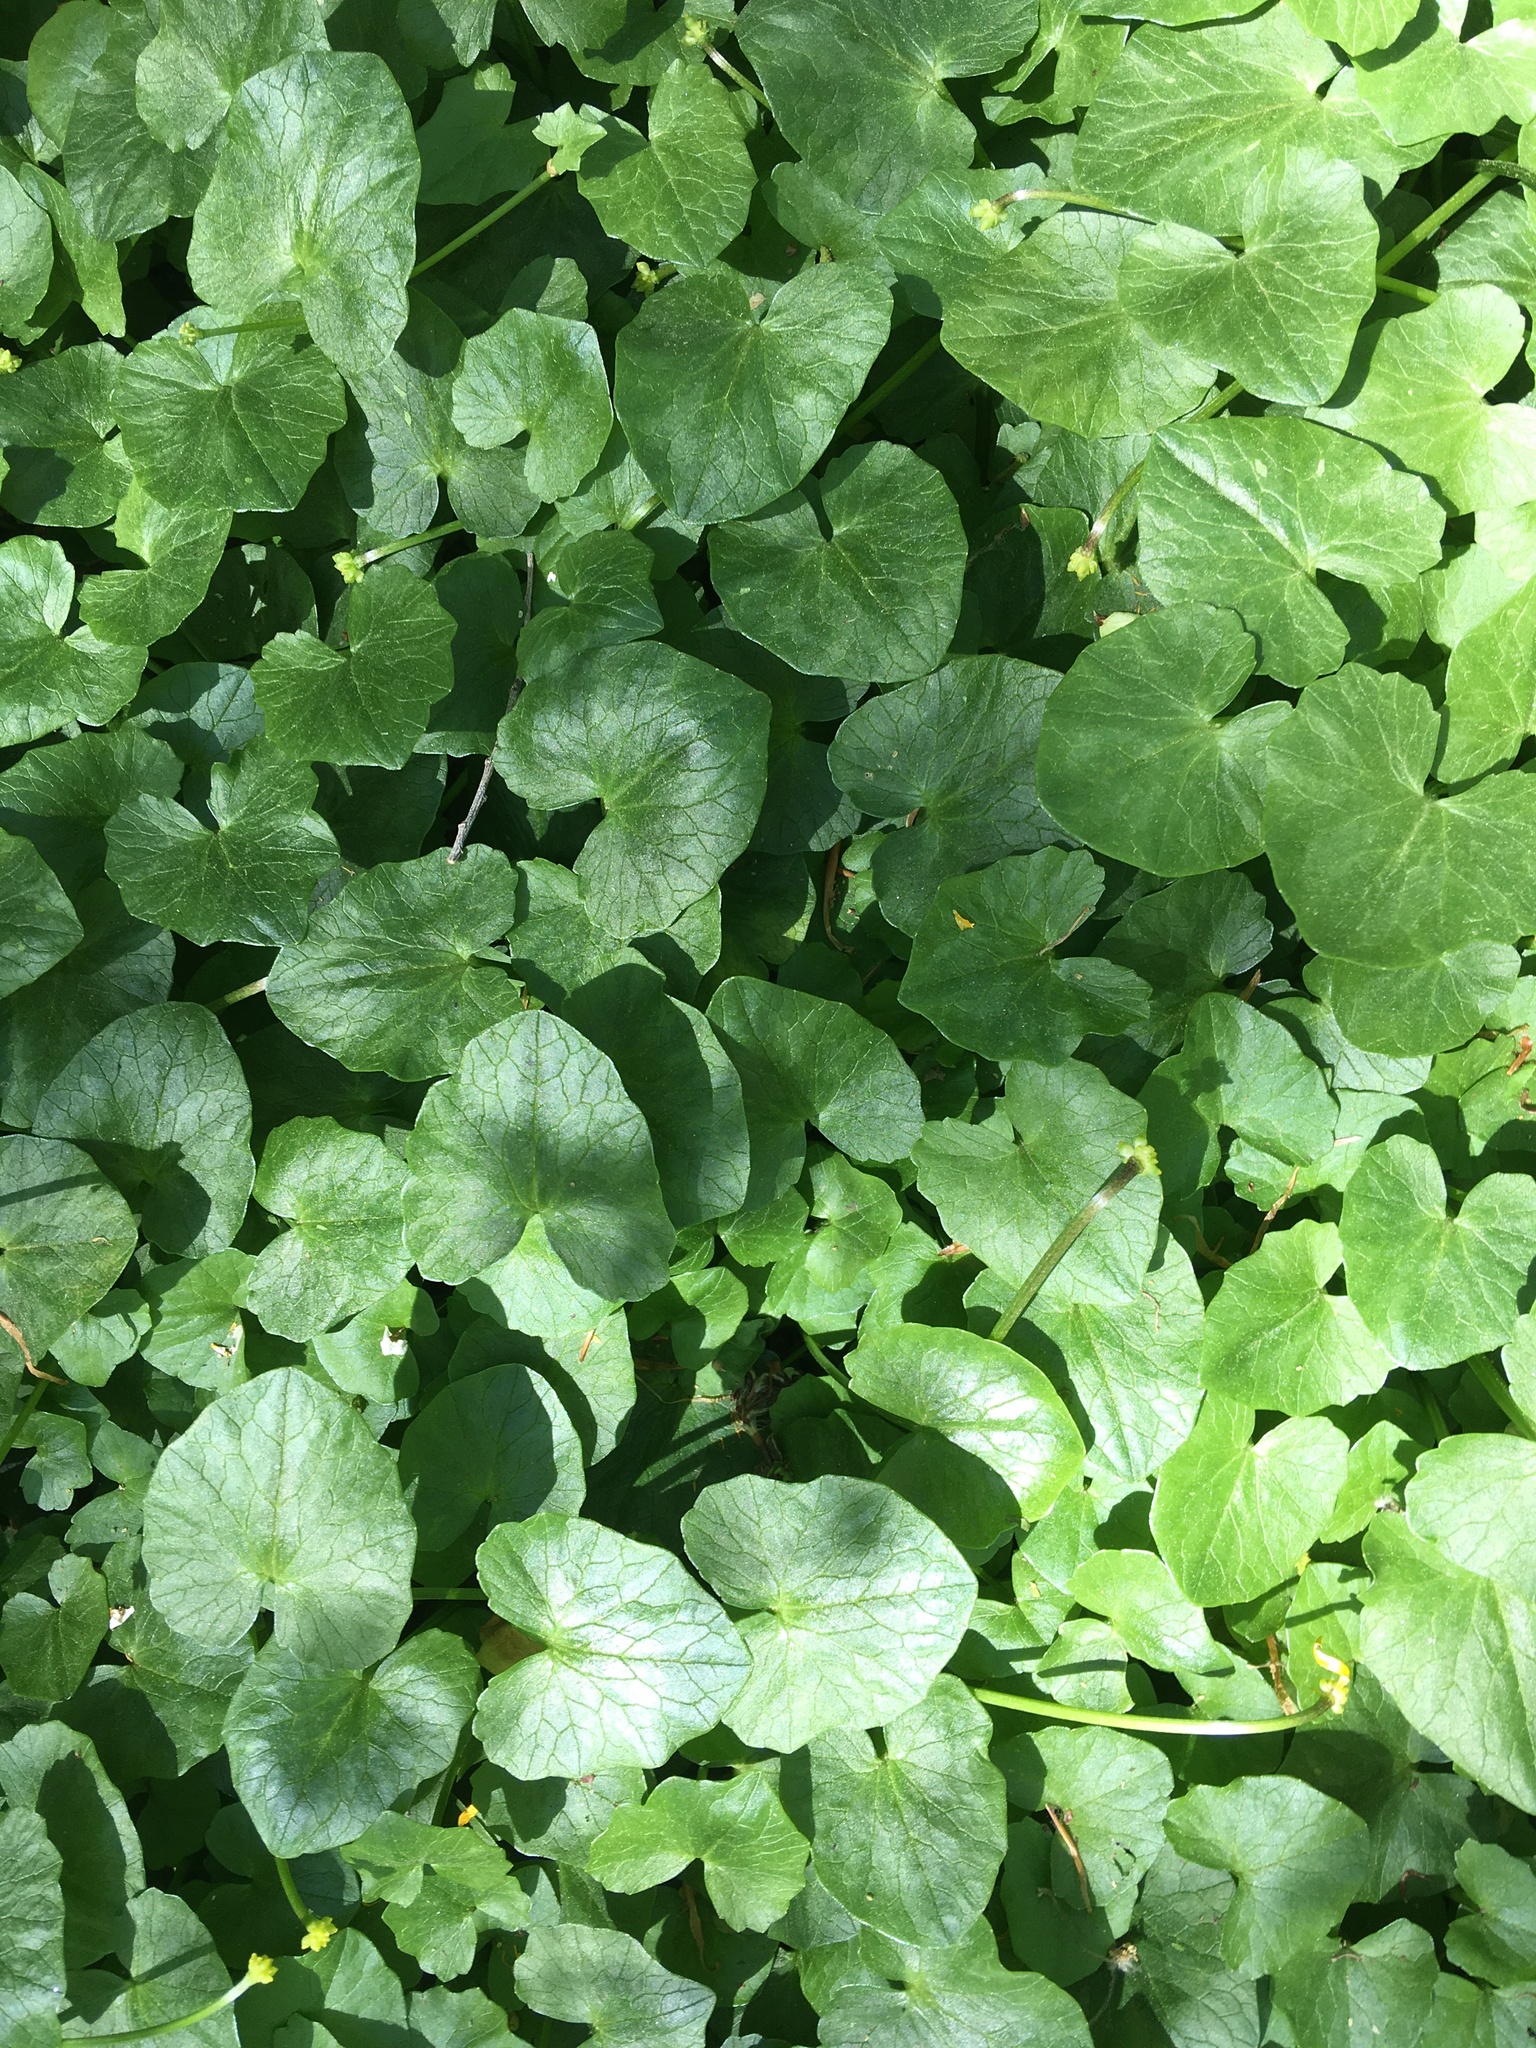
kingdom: Plantae
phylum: Tracheophyta
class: Magnoliopsida
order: Ranunculales
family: Ranunculaceae
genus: Ficaria
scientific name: Ficaria verna
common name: Lesser celandine
